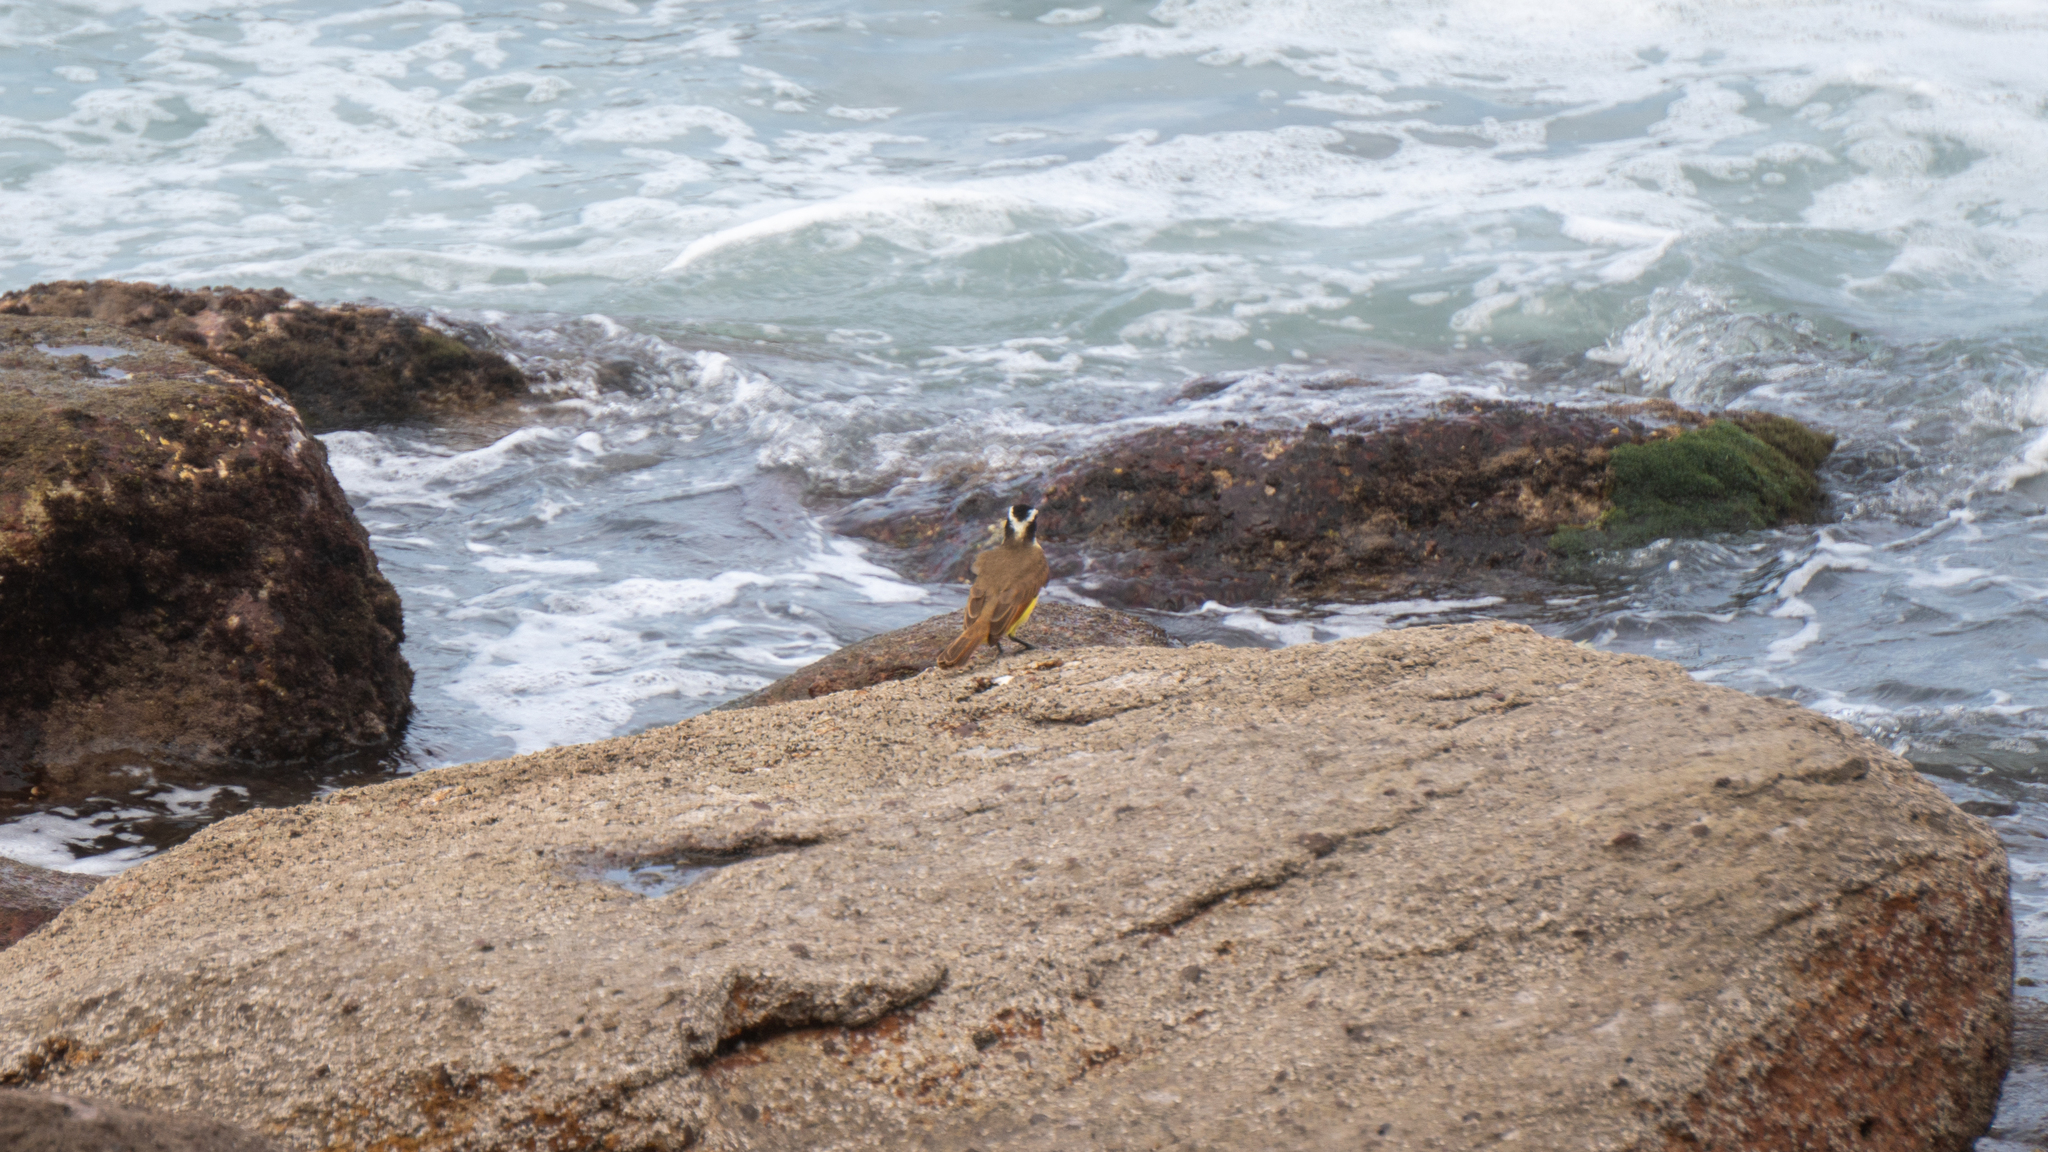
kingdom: Animalia
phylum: Chordata
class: Aves
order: Passeriformes
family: Tyrannidae
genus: Pitangus
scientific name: Pitangus sulphuratus
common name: Great kiskadee
